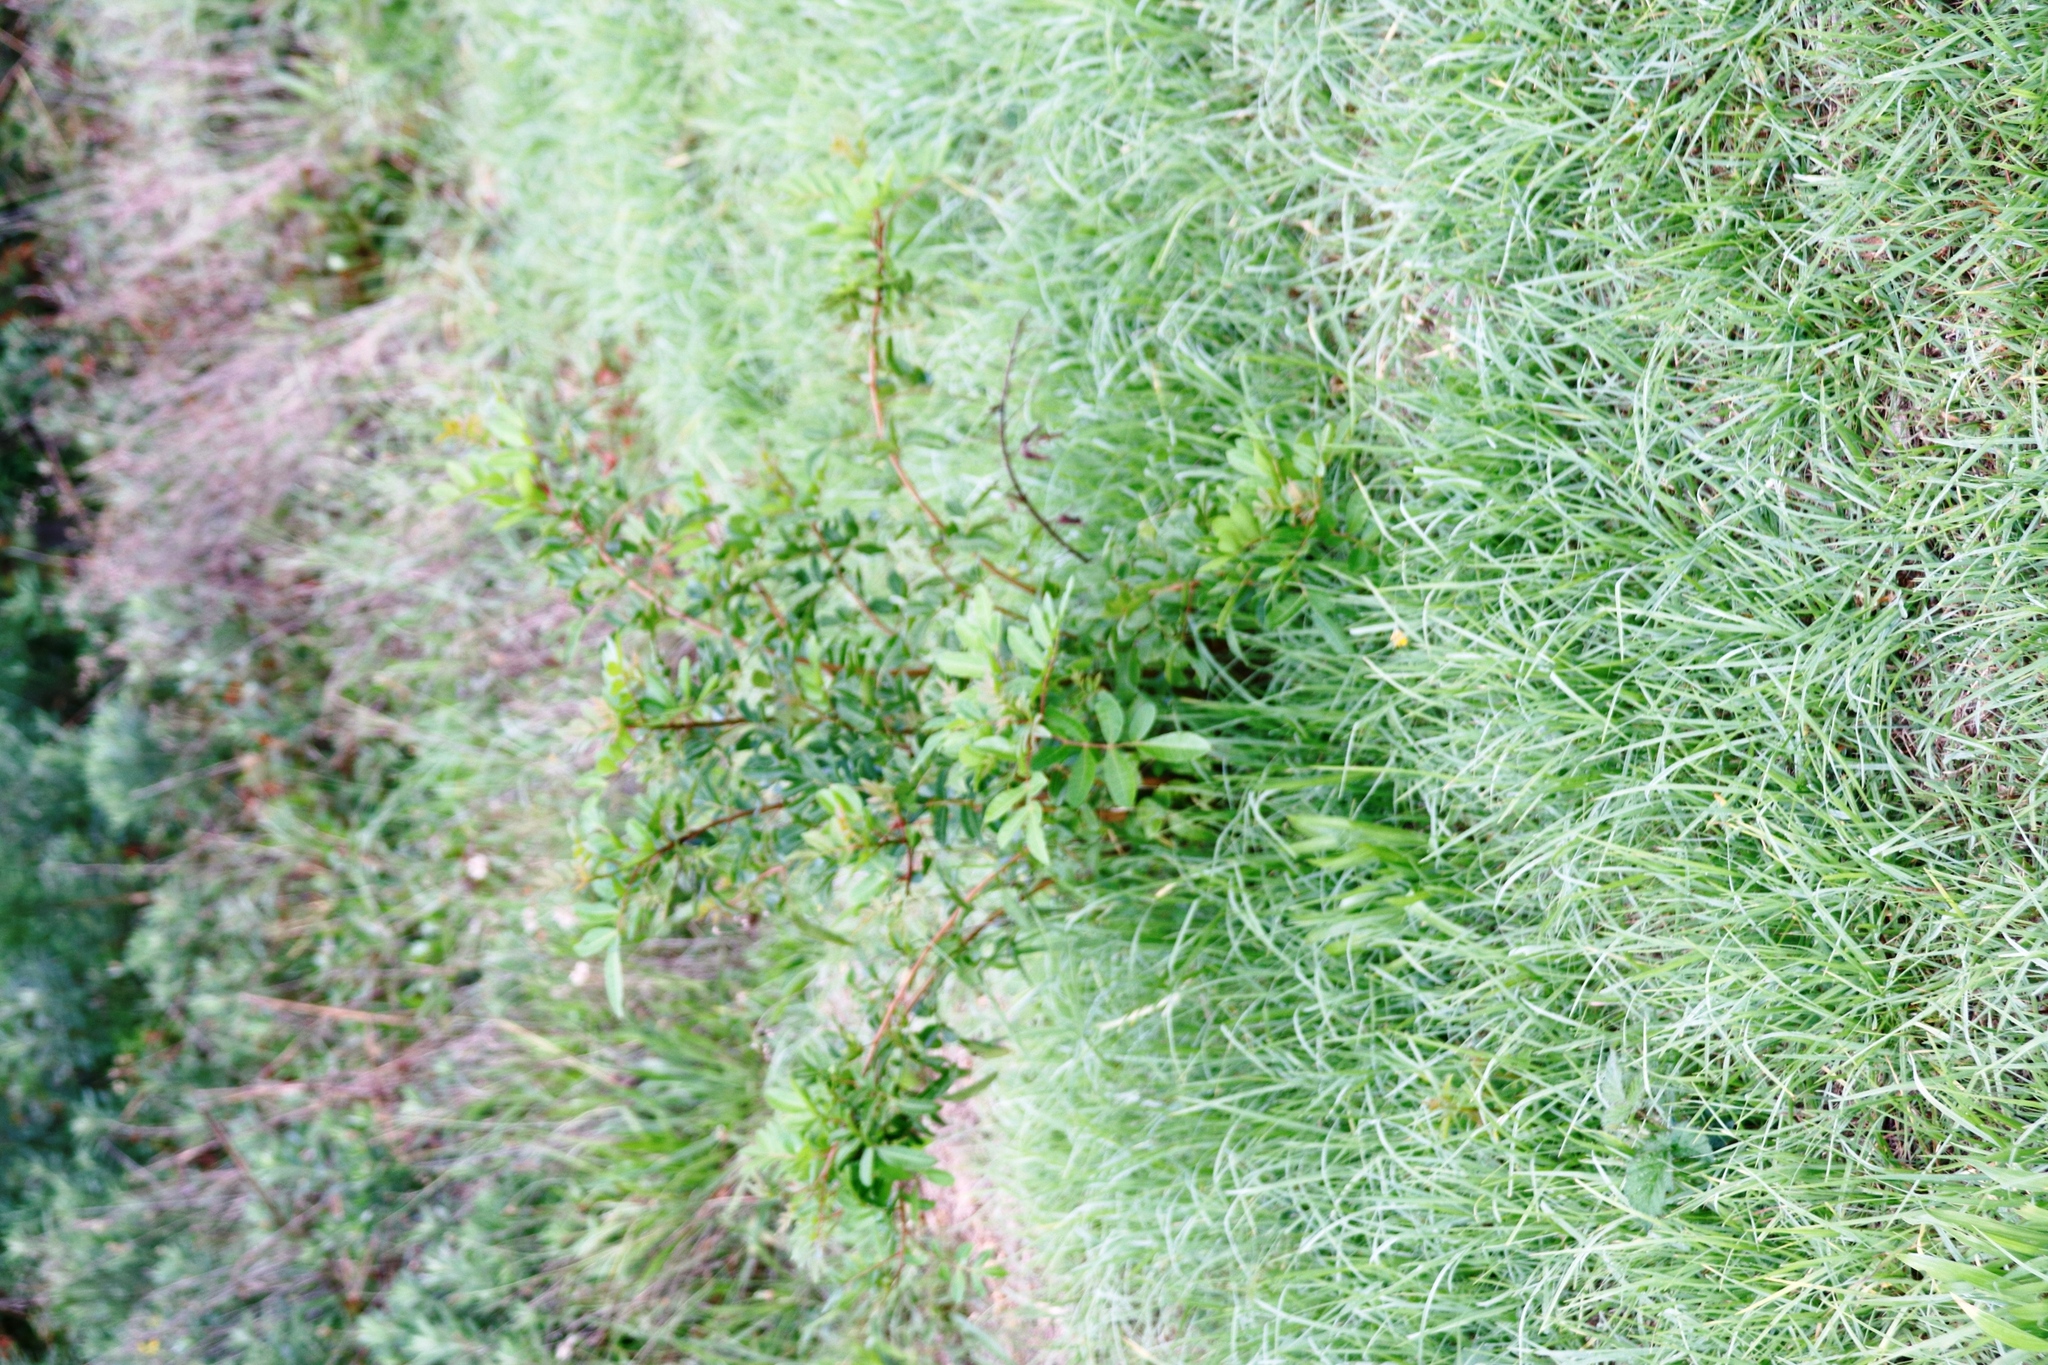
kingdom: Plantae
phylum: Tracheophyta
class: Magnoliopsida
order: Sapindales
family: Anacardiaceae
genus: Schinus
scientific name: Schinus terebinthifolia
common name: Brazilian peppertree
